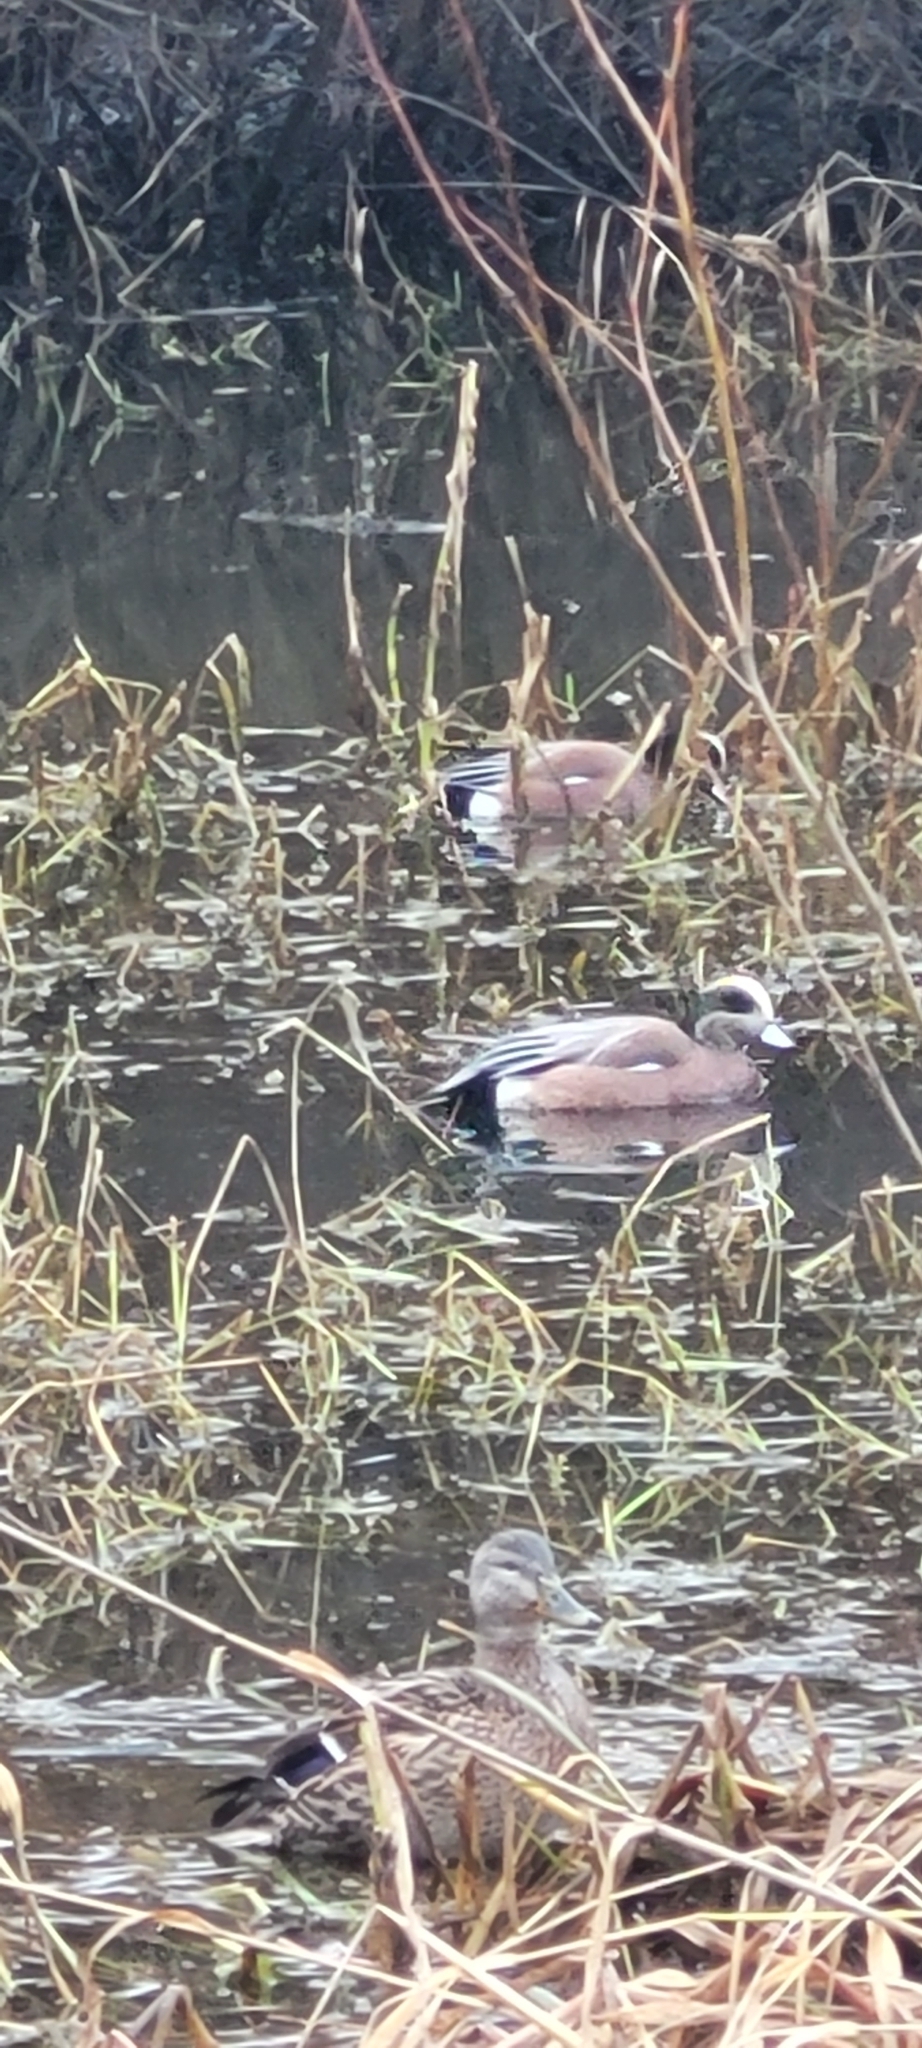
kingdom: Animalia
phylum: Chordata
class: Aves
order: Anseriformes
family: Anatidae
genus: Mareca
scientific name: Mareca americana
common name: American wigeon
